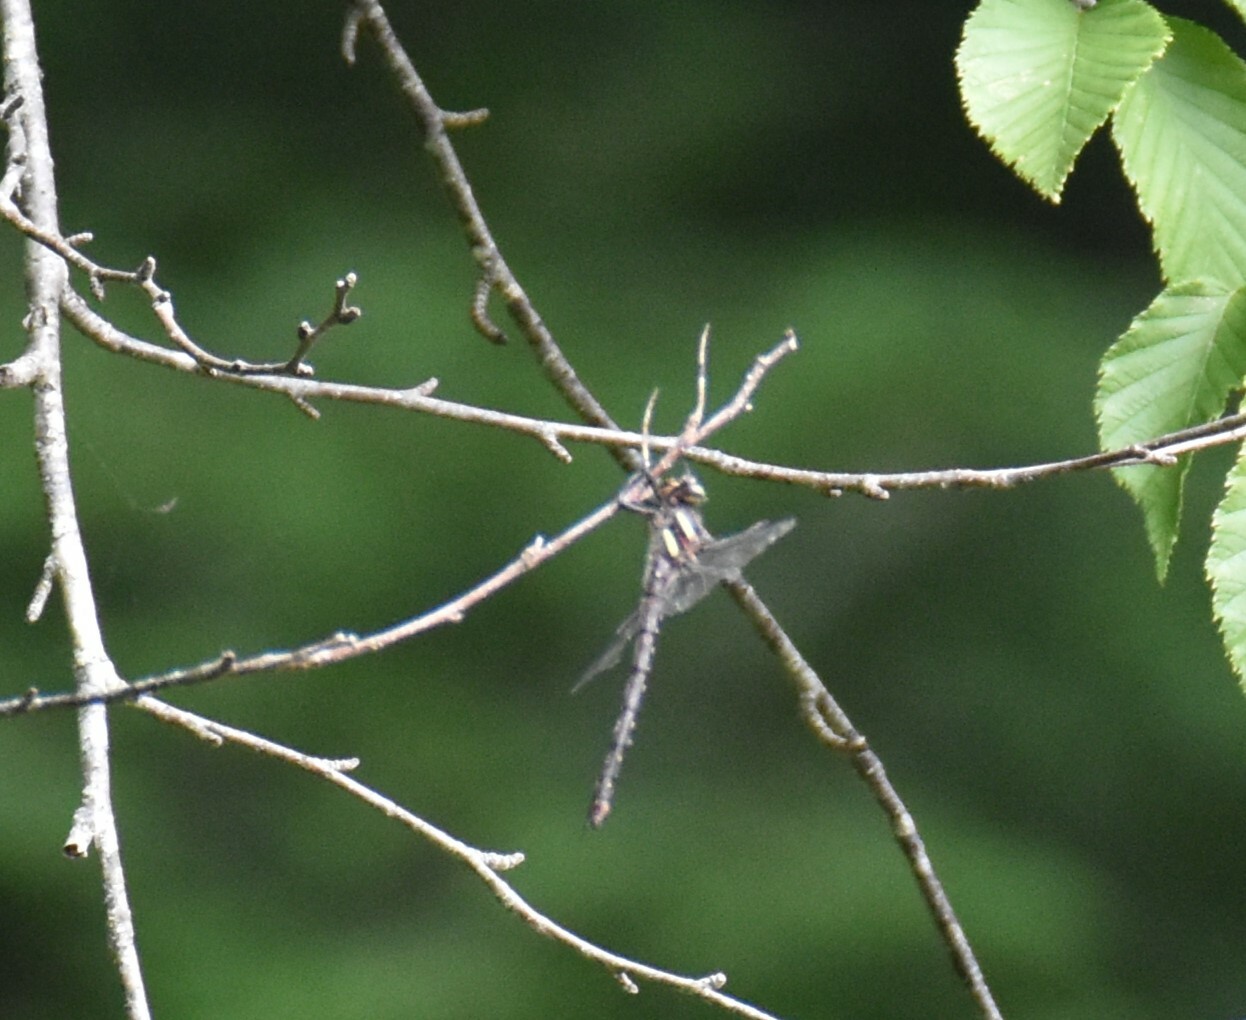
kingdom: Animalia
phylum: Arthropoda
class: Insecta
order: Odonata
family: Cordulegastridae
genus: Cordulegaster
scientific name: Cordulegaster maculata
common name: Twin-spotted spiketail
